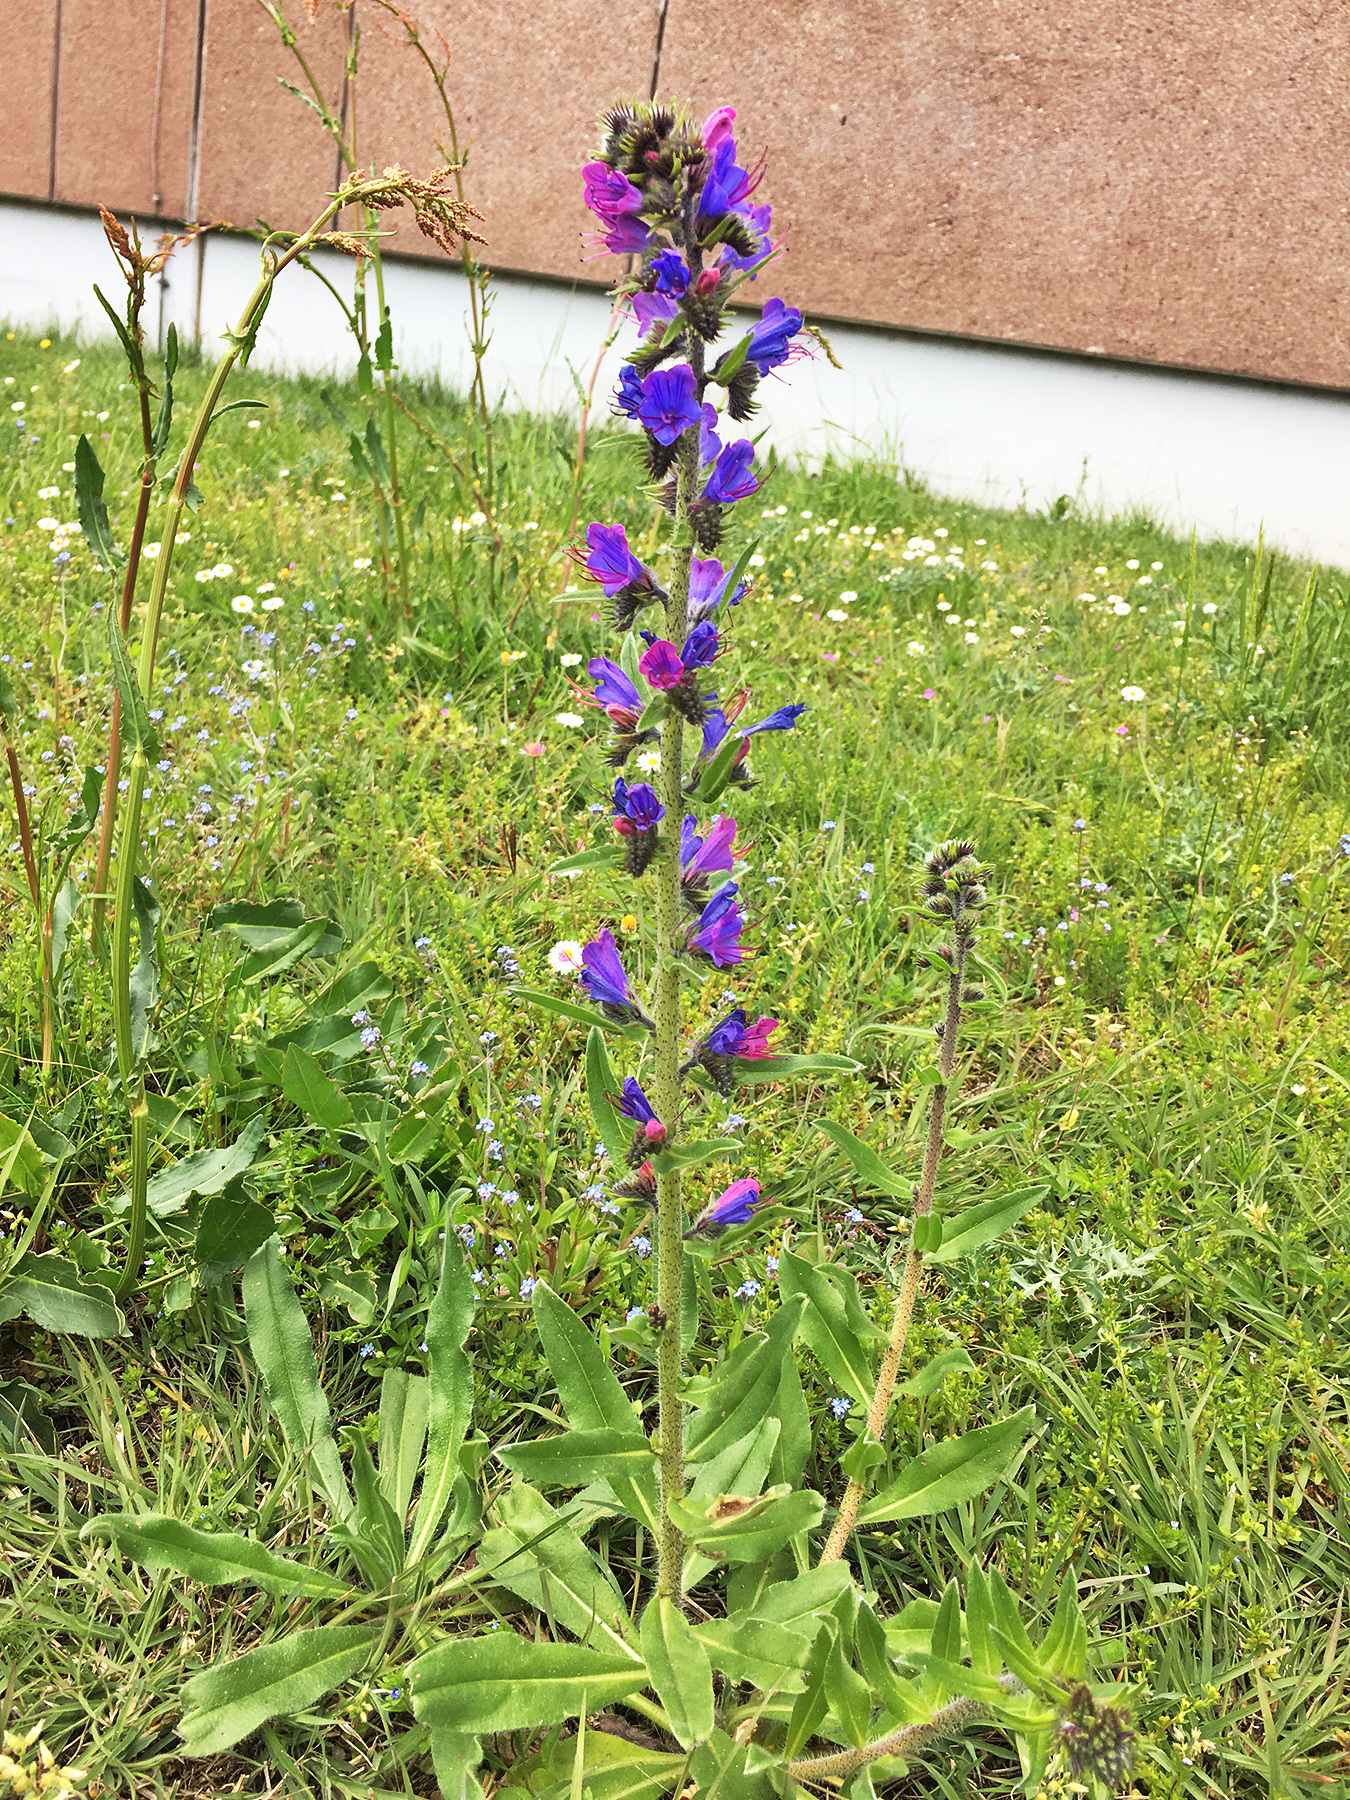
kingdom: Plantae
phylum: Tracheophyta
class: Magnoliopsida
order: Boraginales
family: Boraginaceae
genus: Echium
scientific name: Echium vulgare
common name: Common viper's bugloss
